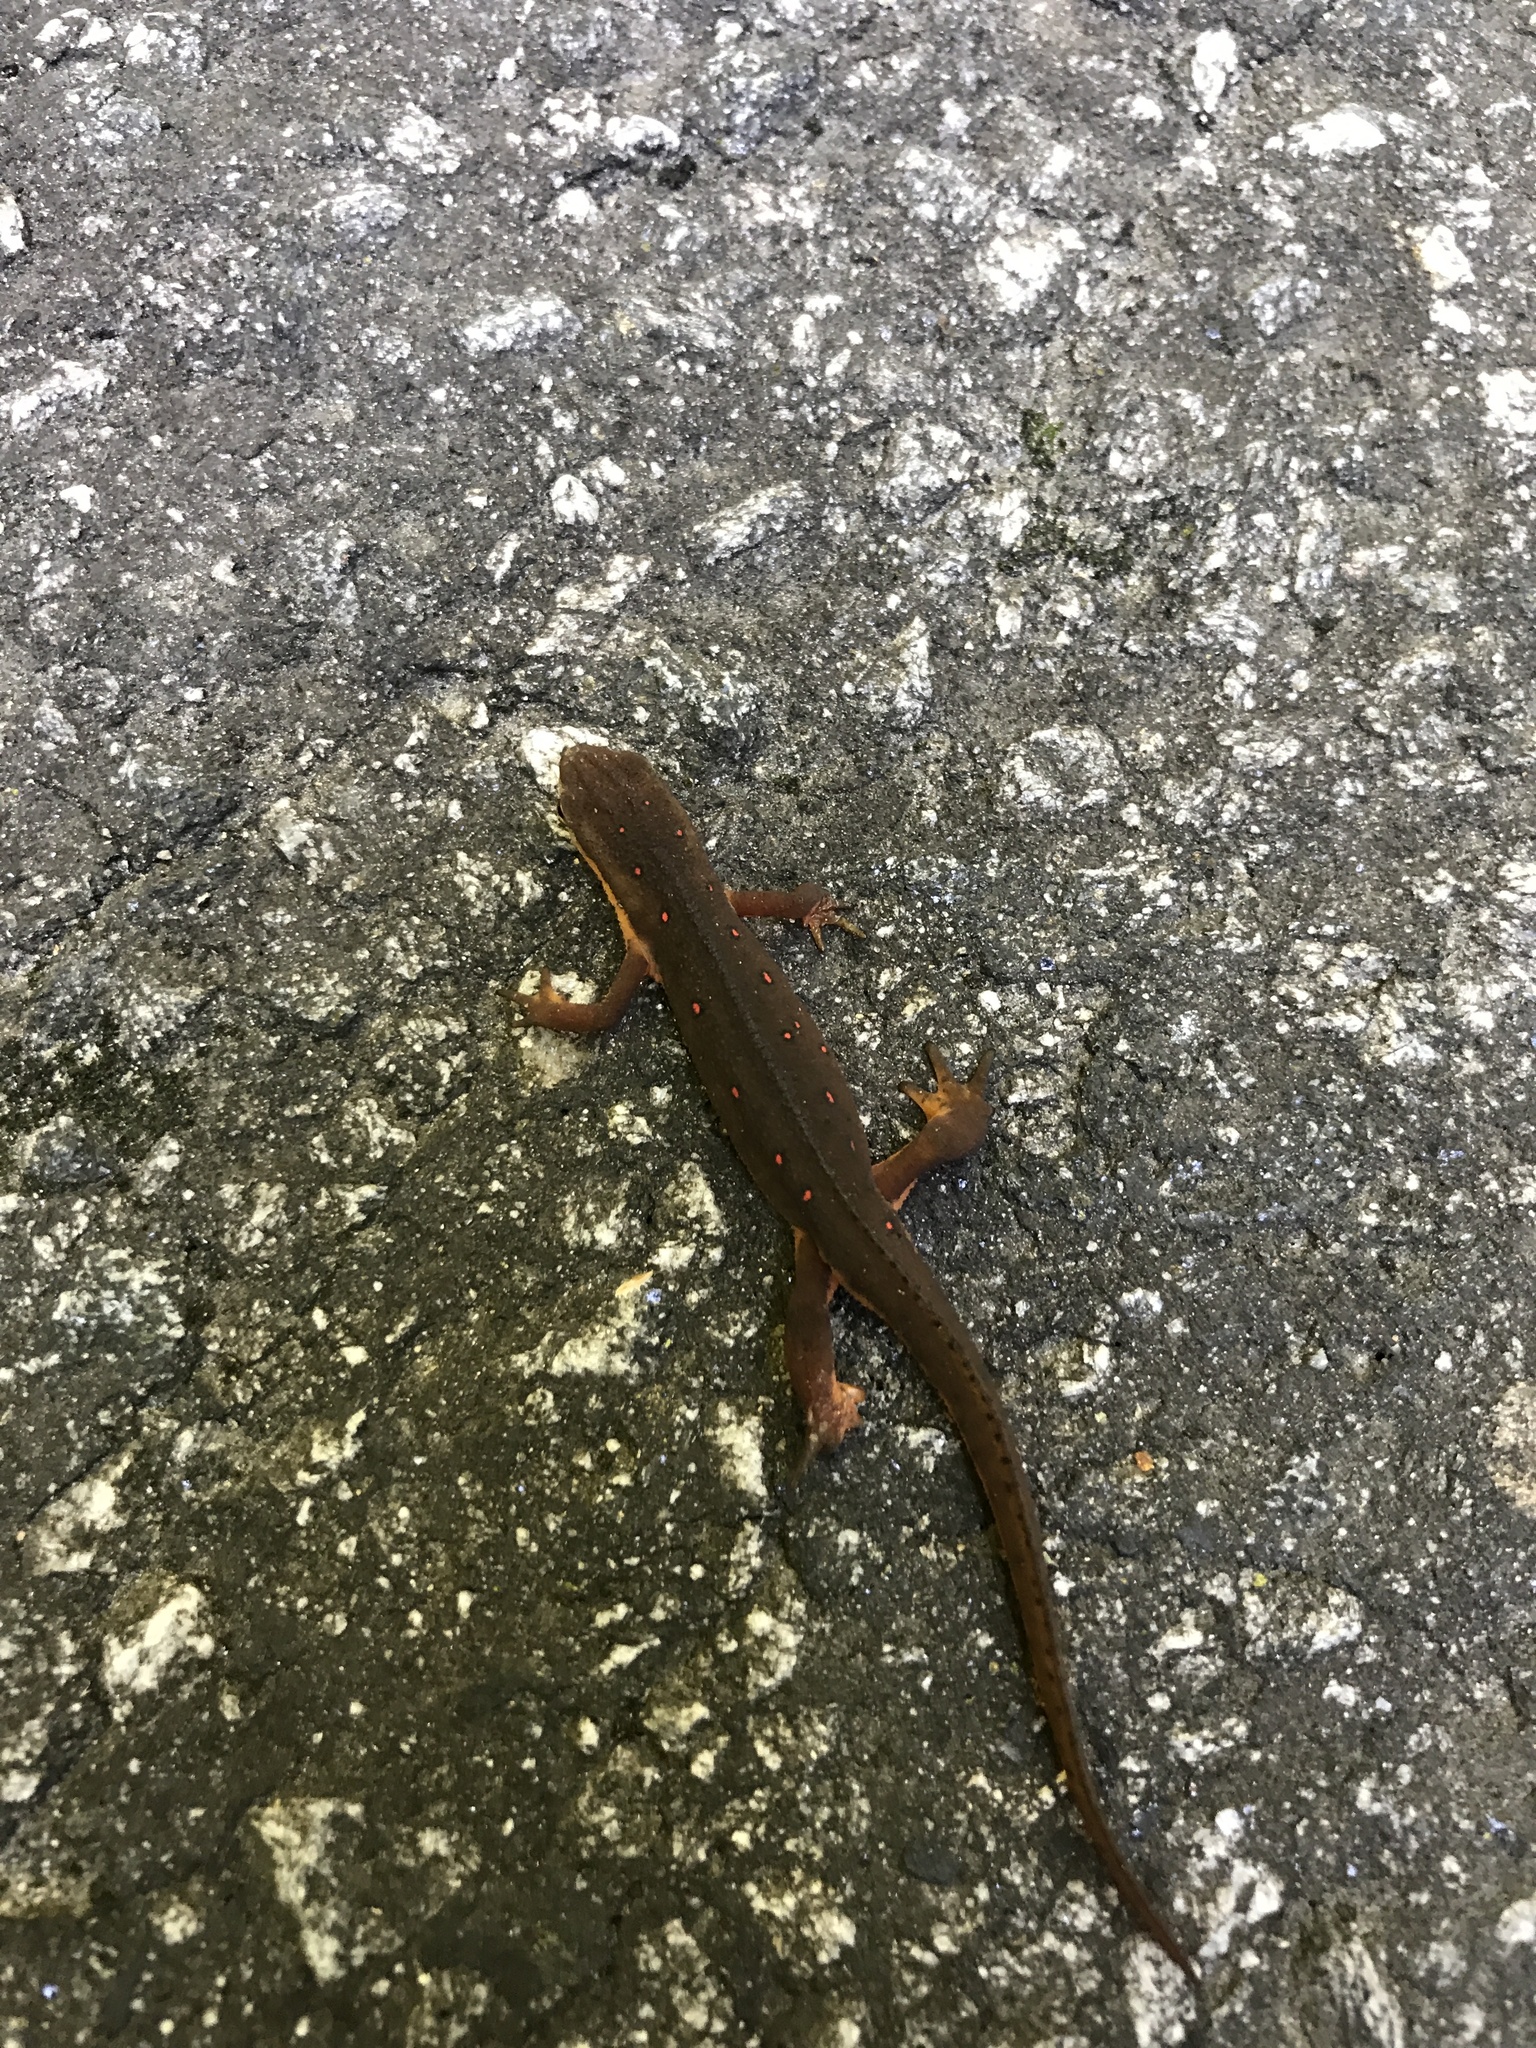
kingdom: Animalia
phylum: Chordata
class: Amphibia
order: Caudata
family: Salamandridae
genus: Notophthalmus
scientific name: Notophthalmus viridescens
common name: Eastern newt
